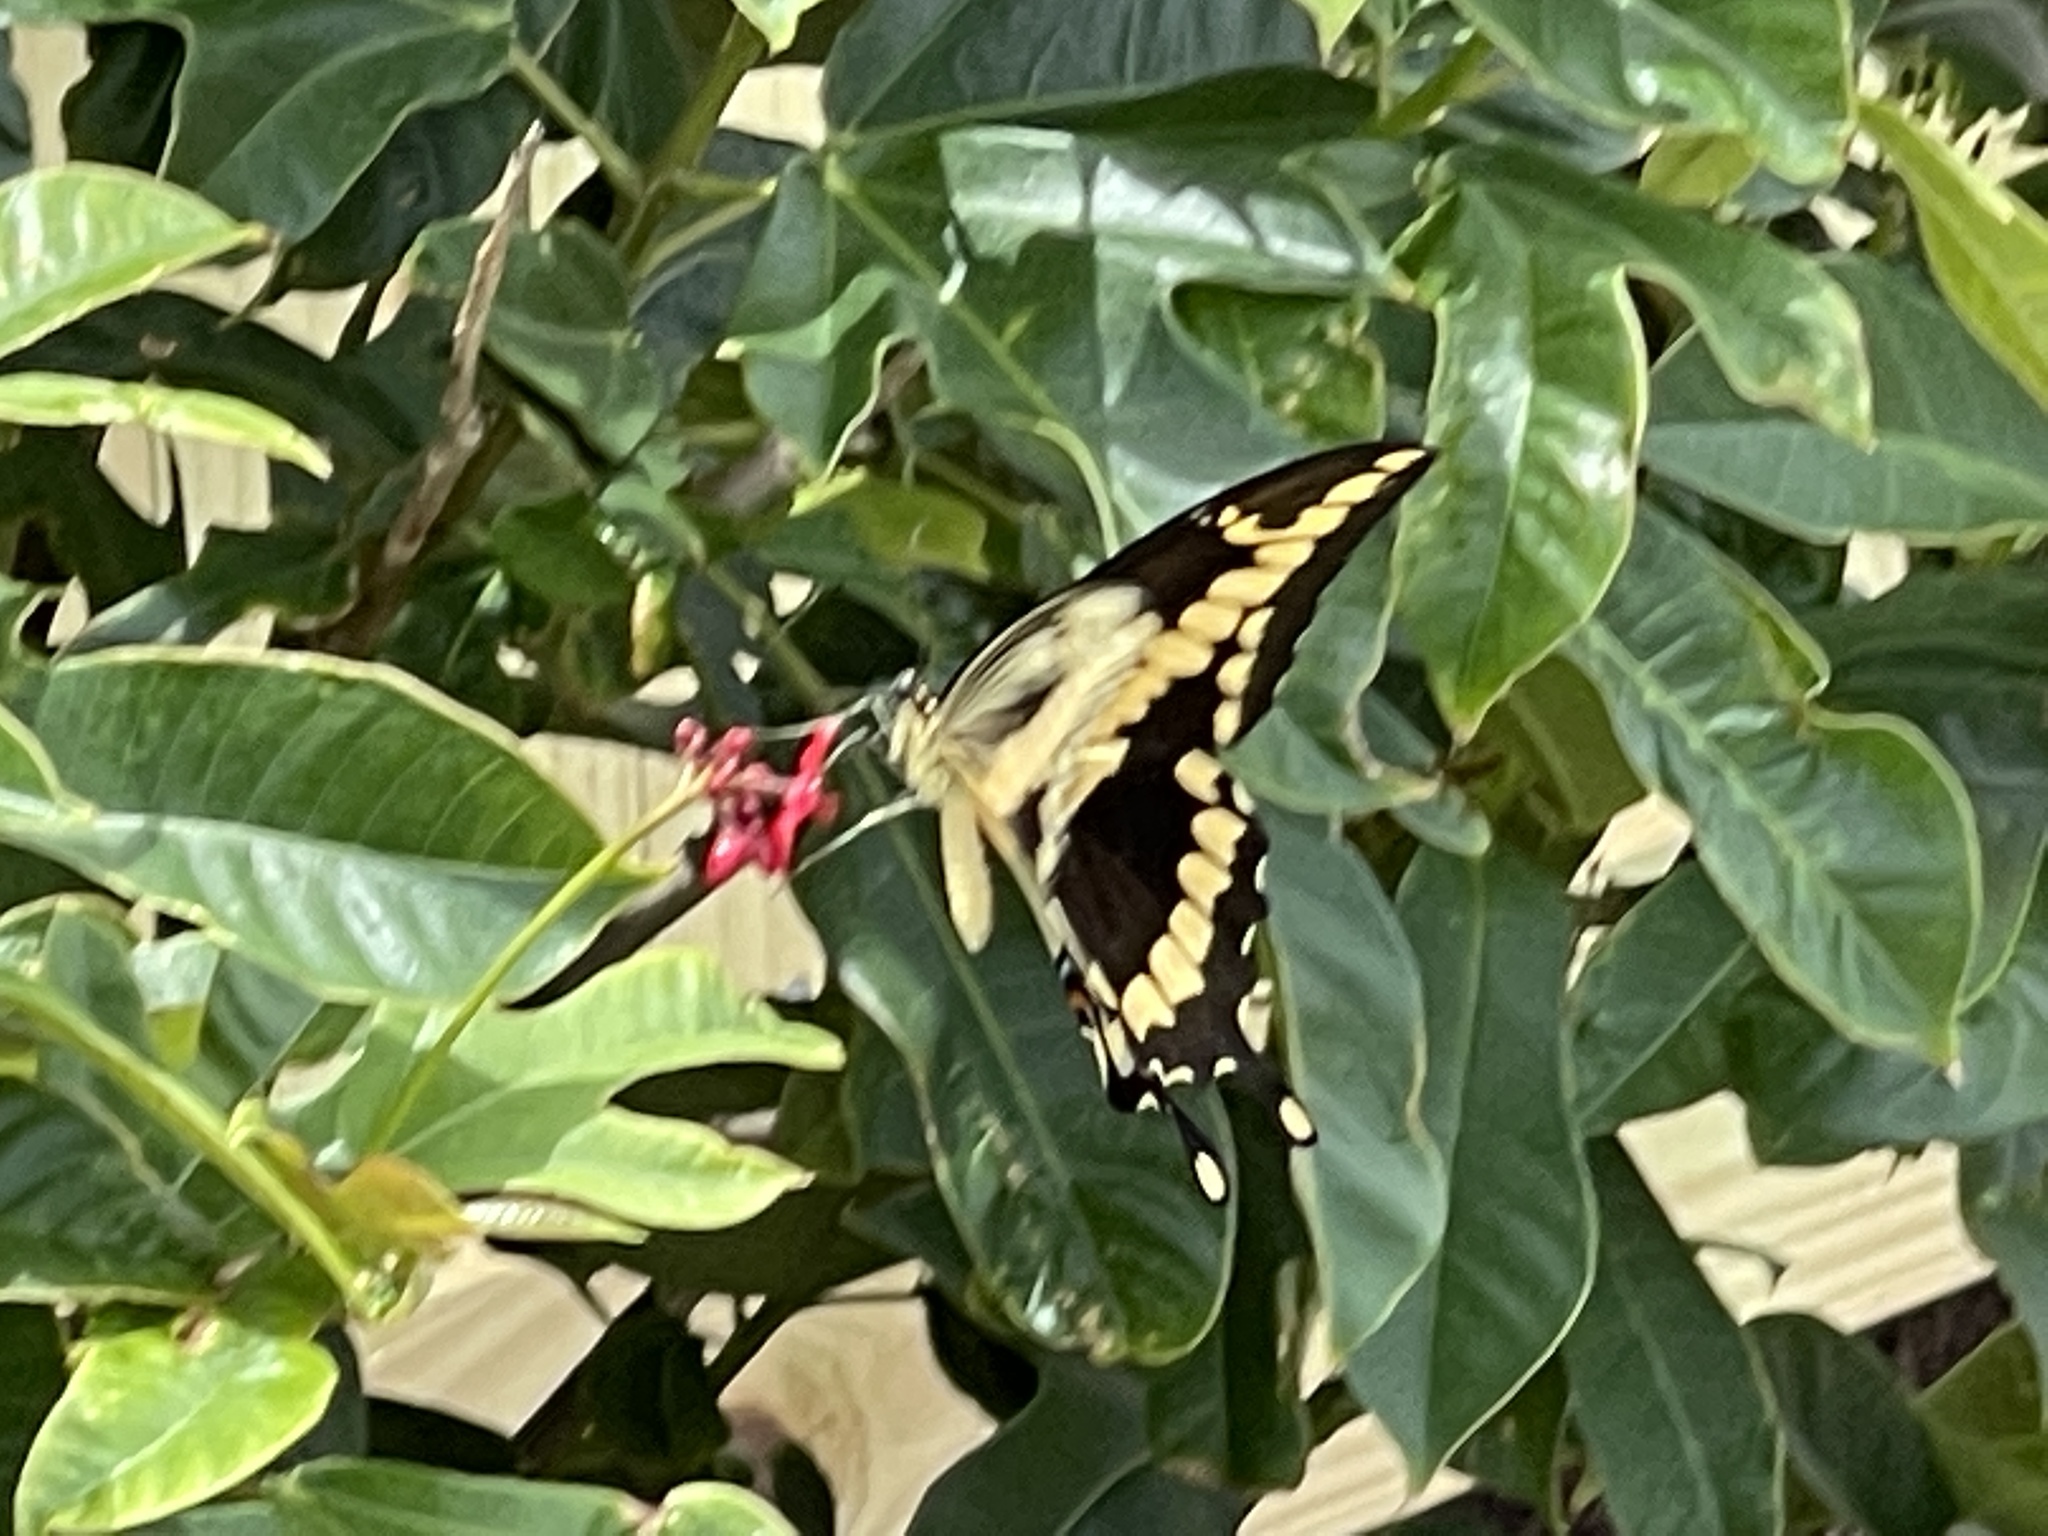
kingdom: Animalia
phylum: Arthropoda
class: Insecta
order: Lepidoptera
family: Papilionidae
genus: Papilio
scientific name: Papilio cresphontes
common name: Giant swallowtail
